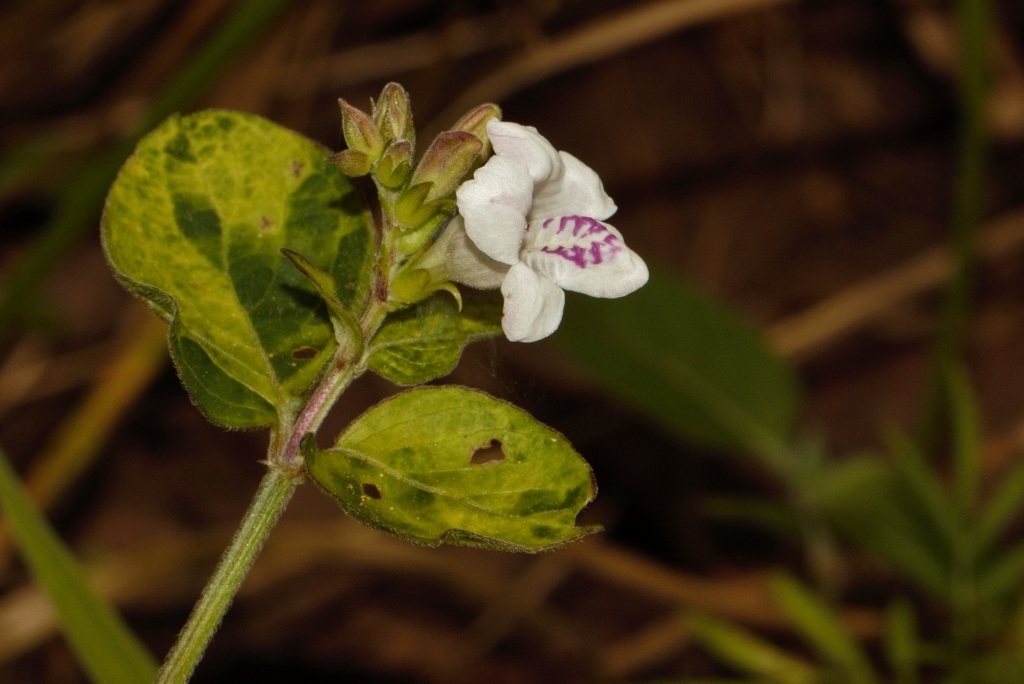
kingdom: Plantae
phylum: Tracheophyta
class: Magnoliopsida
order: Lamiales
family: Acanthaceae
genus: Asystasia
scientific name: Asystasia intrusa
